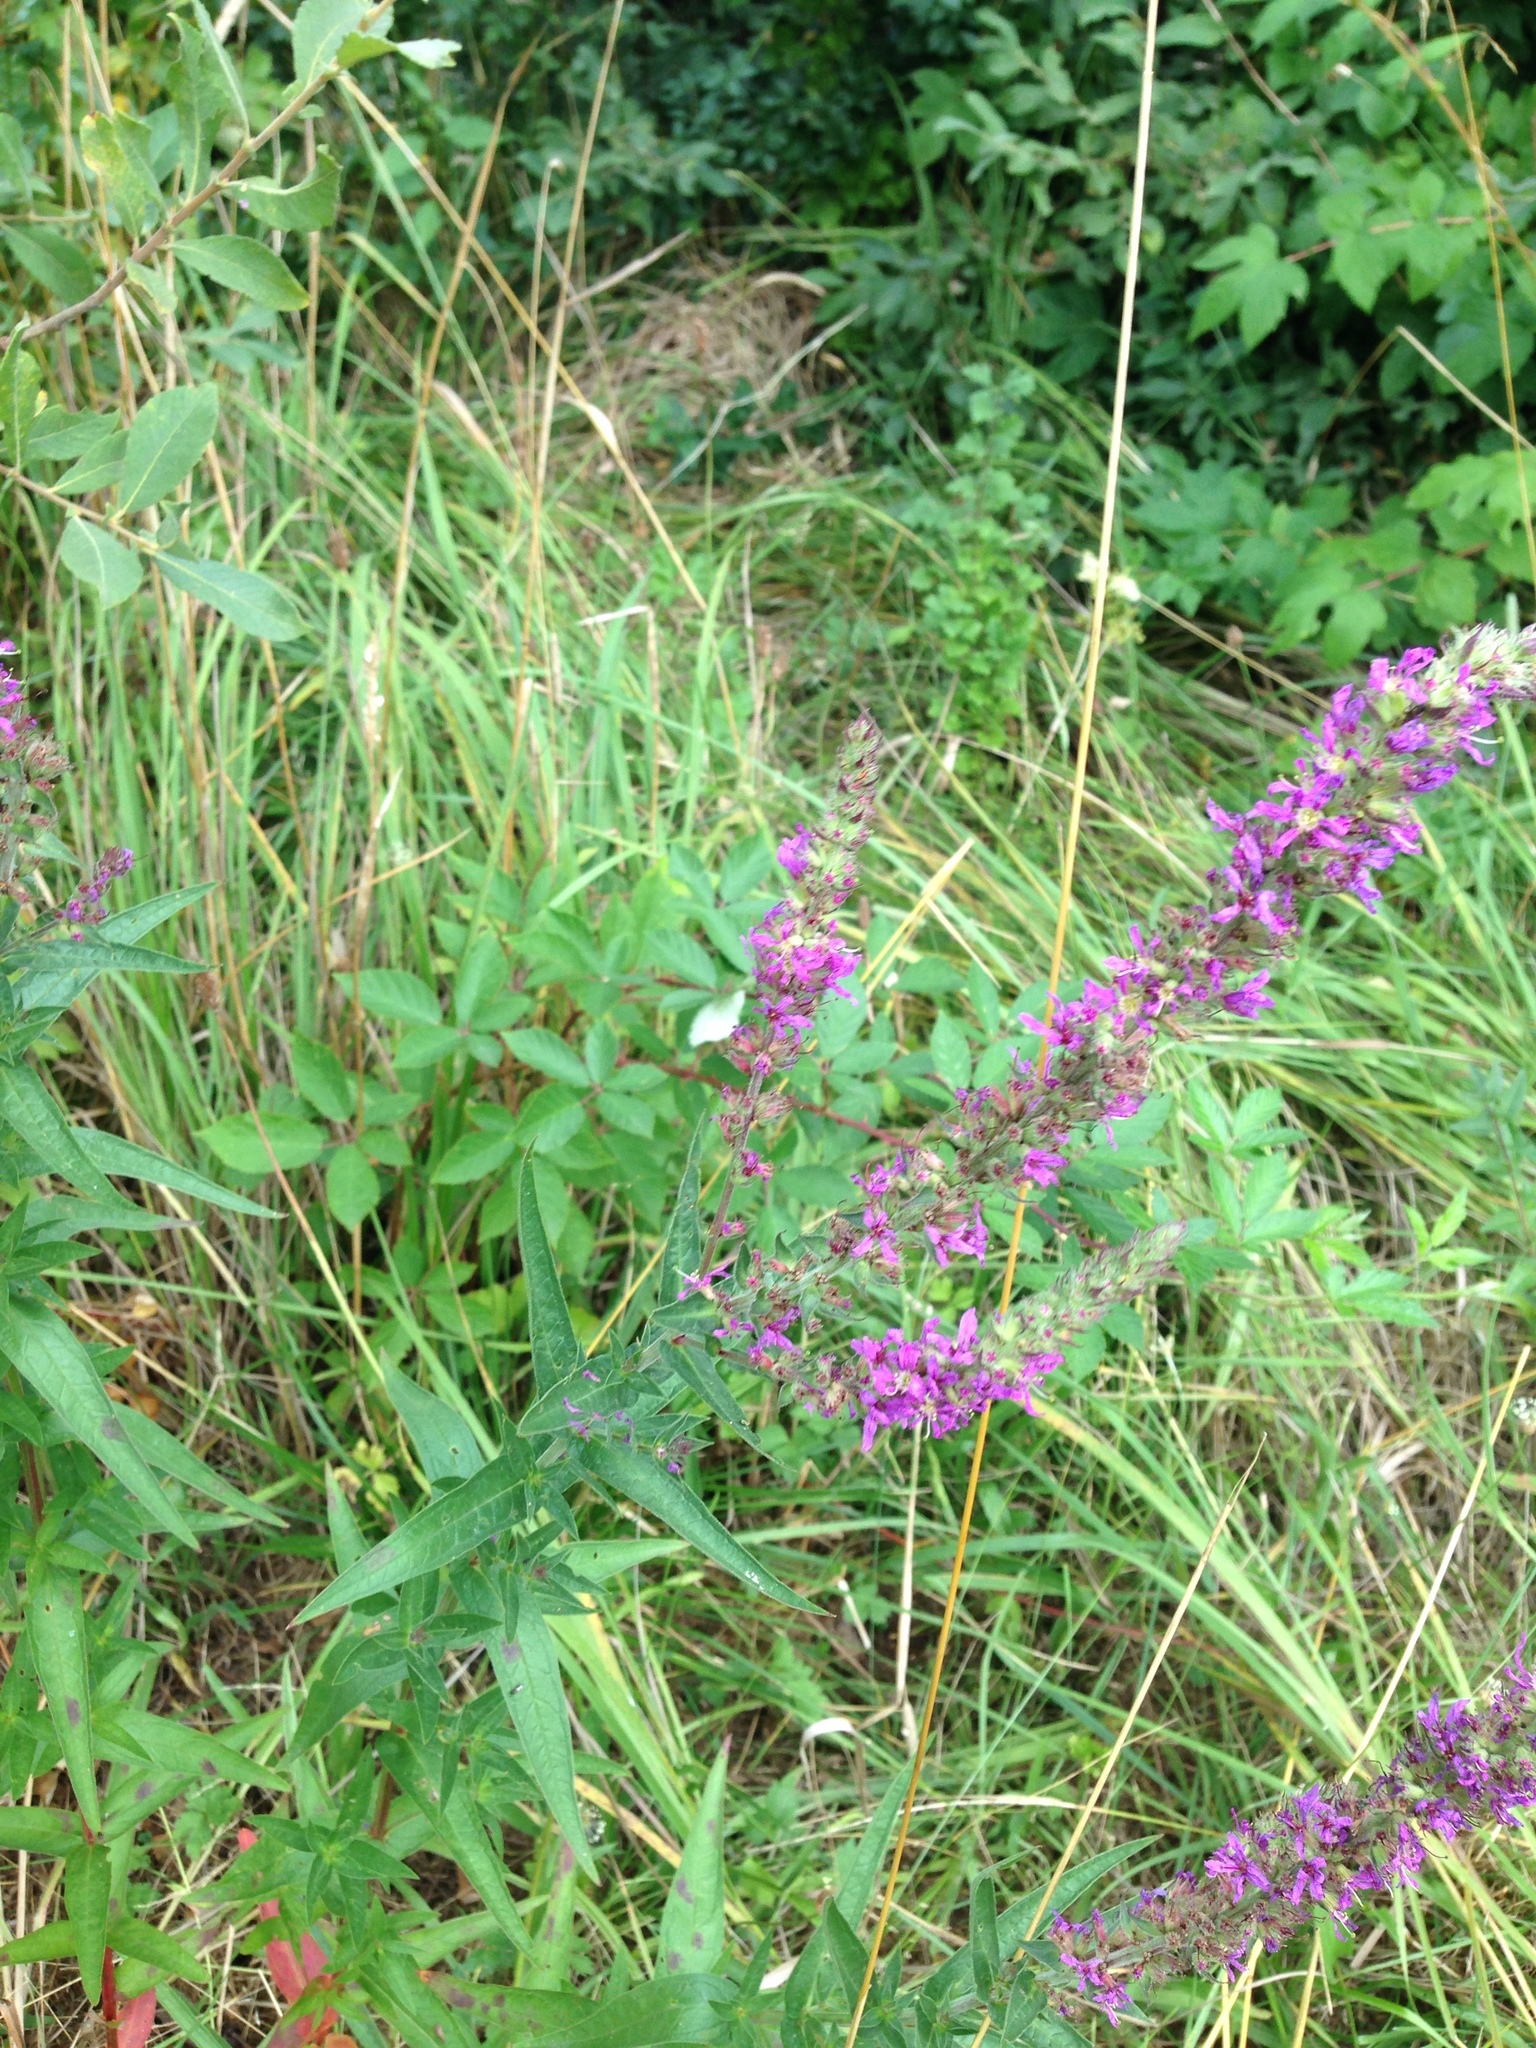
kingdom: Plantae
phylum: Tracheophyta
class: Magnoliopsida
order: Myrtales
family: Lythraceae
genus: Lythrum
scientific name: Lythrum salicaria
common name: Purple loosestrife
